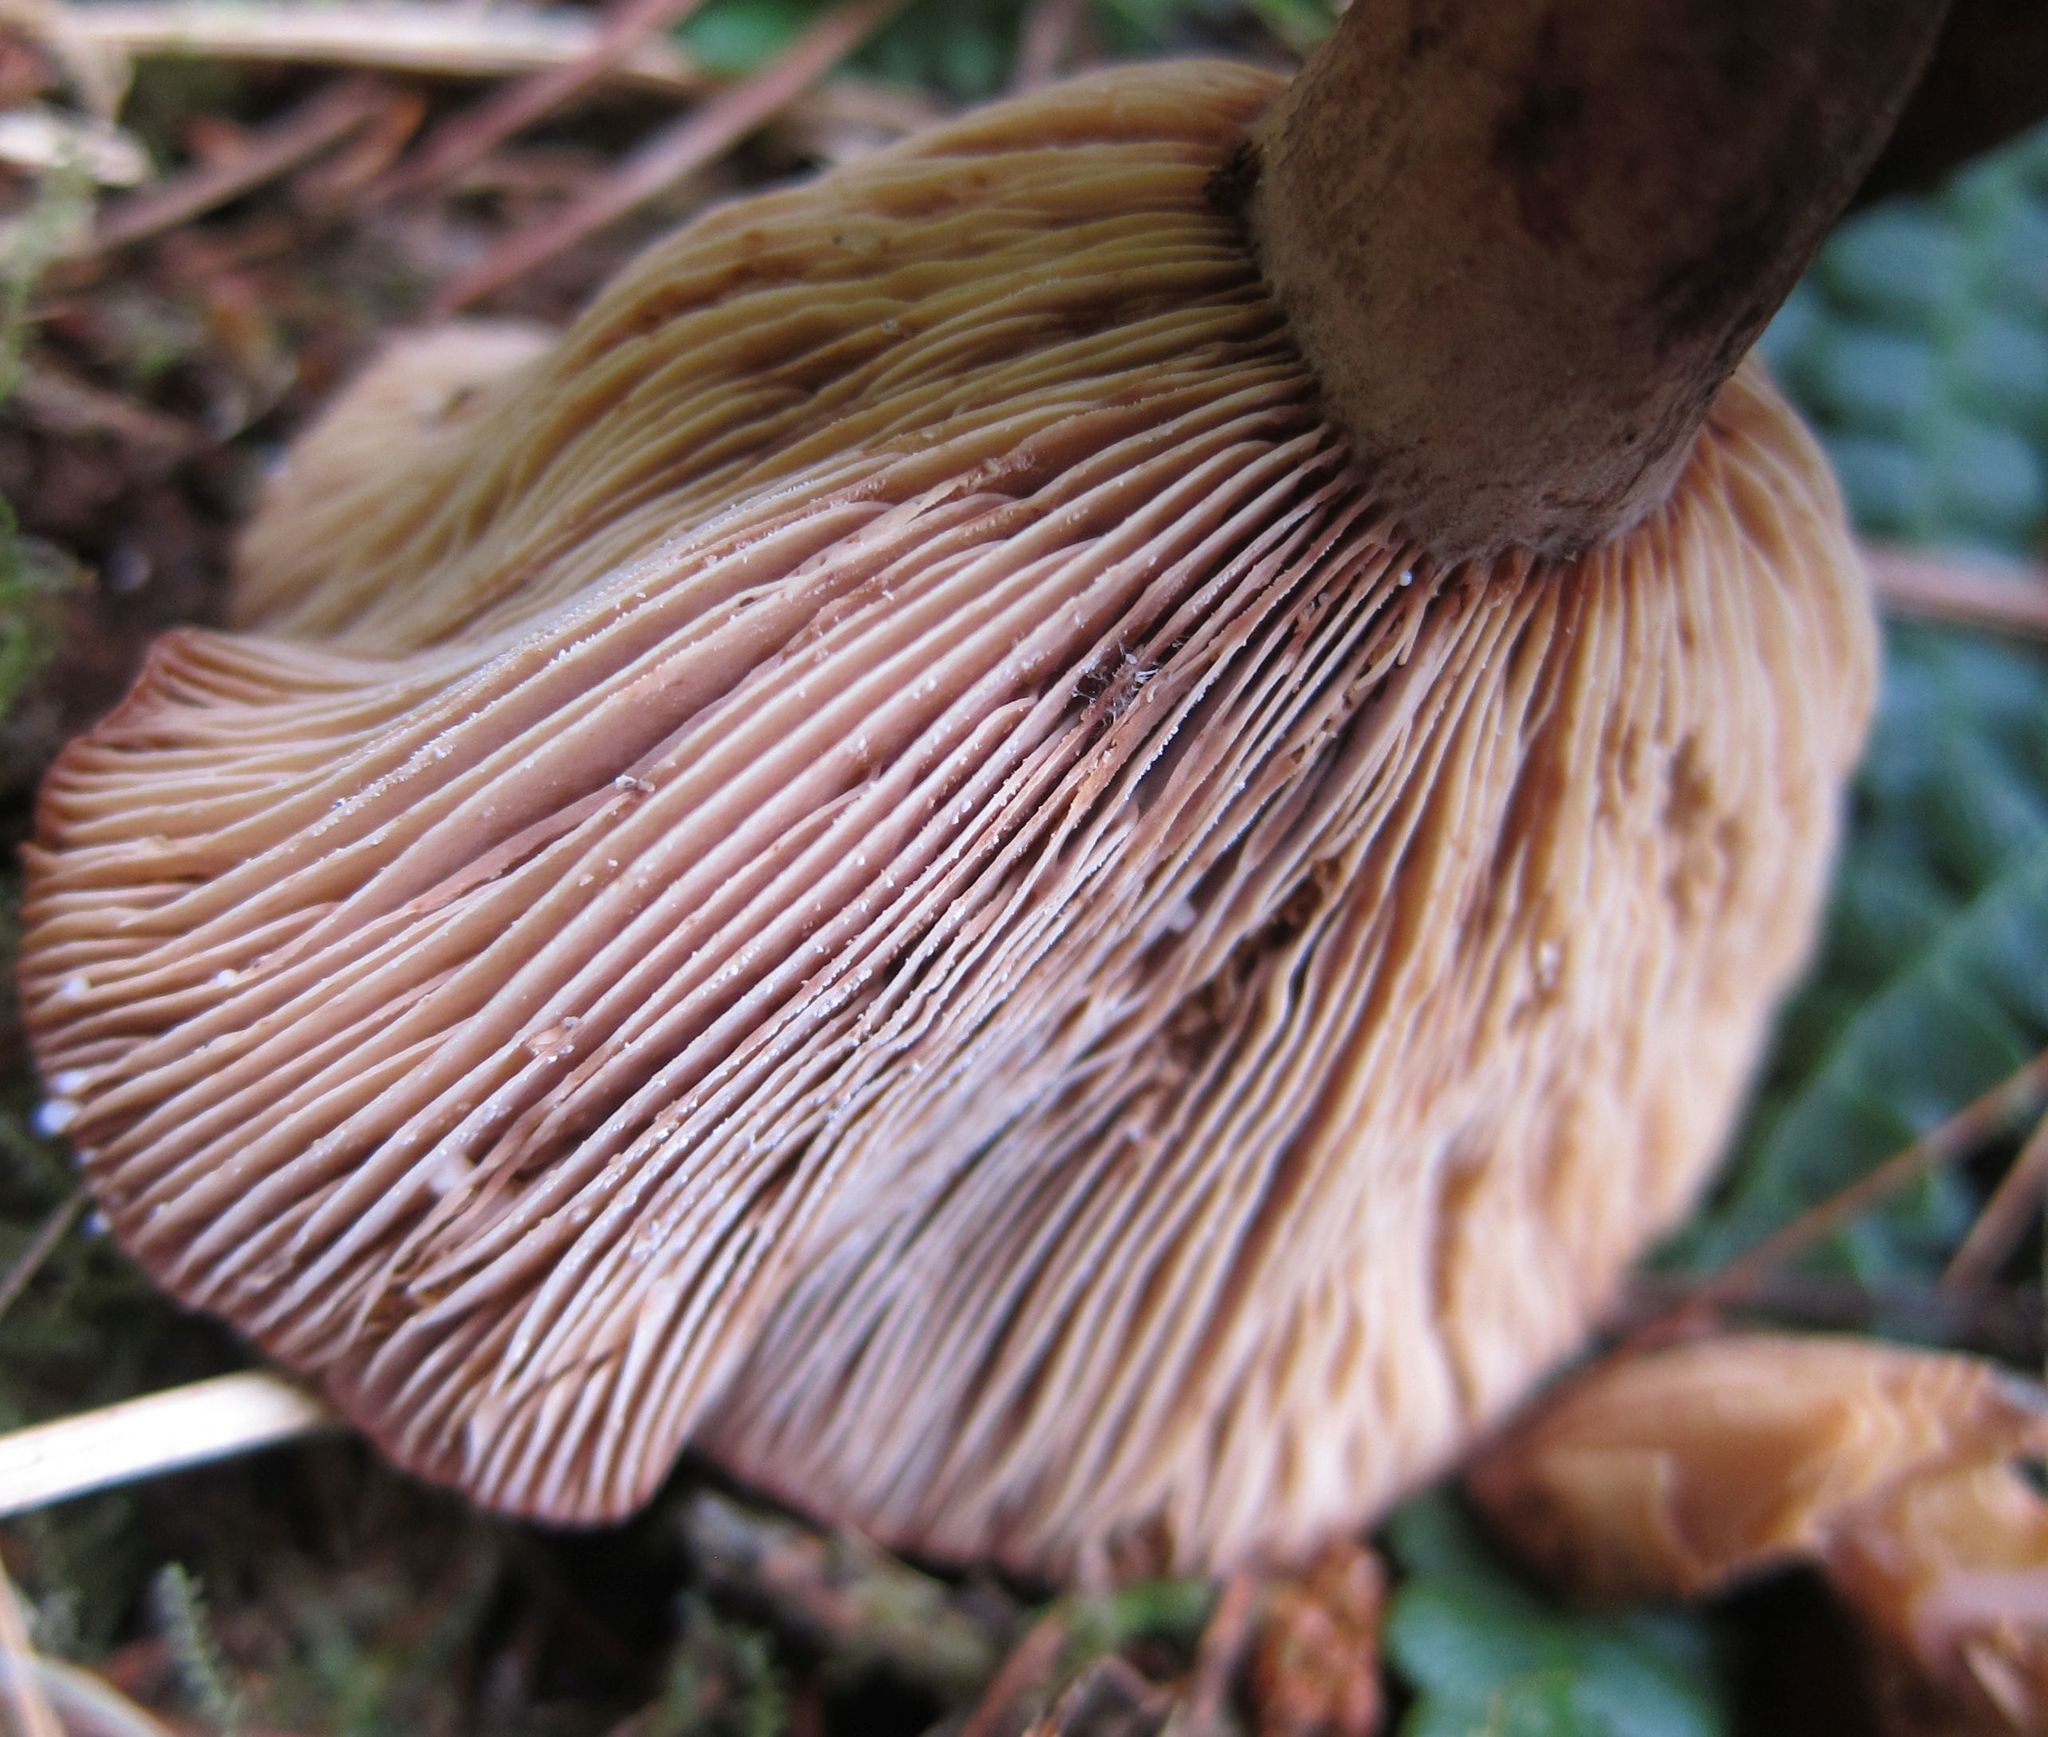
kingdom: Fungi
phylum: Basidiomycota
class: Agaricomycetes
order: Russulales
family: Russulaceae
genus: Lactarius
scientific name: Lactarius rufus
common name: Rufous milk-cap
